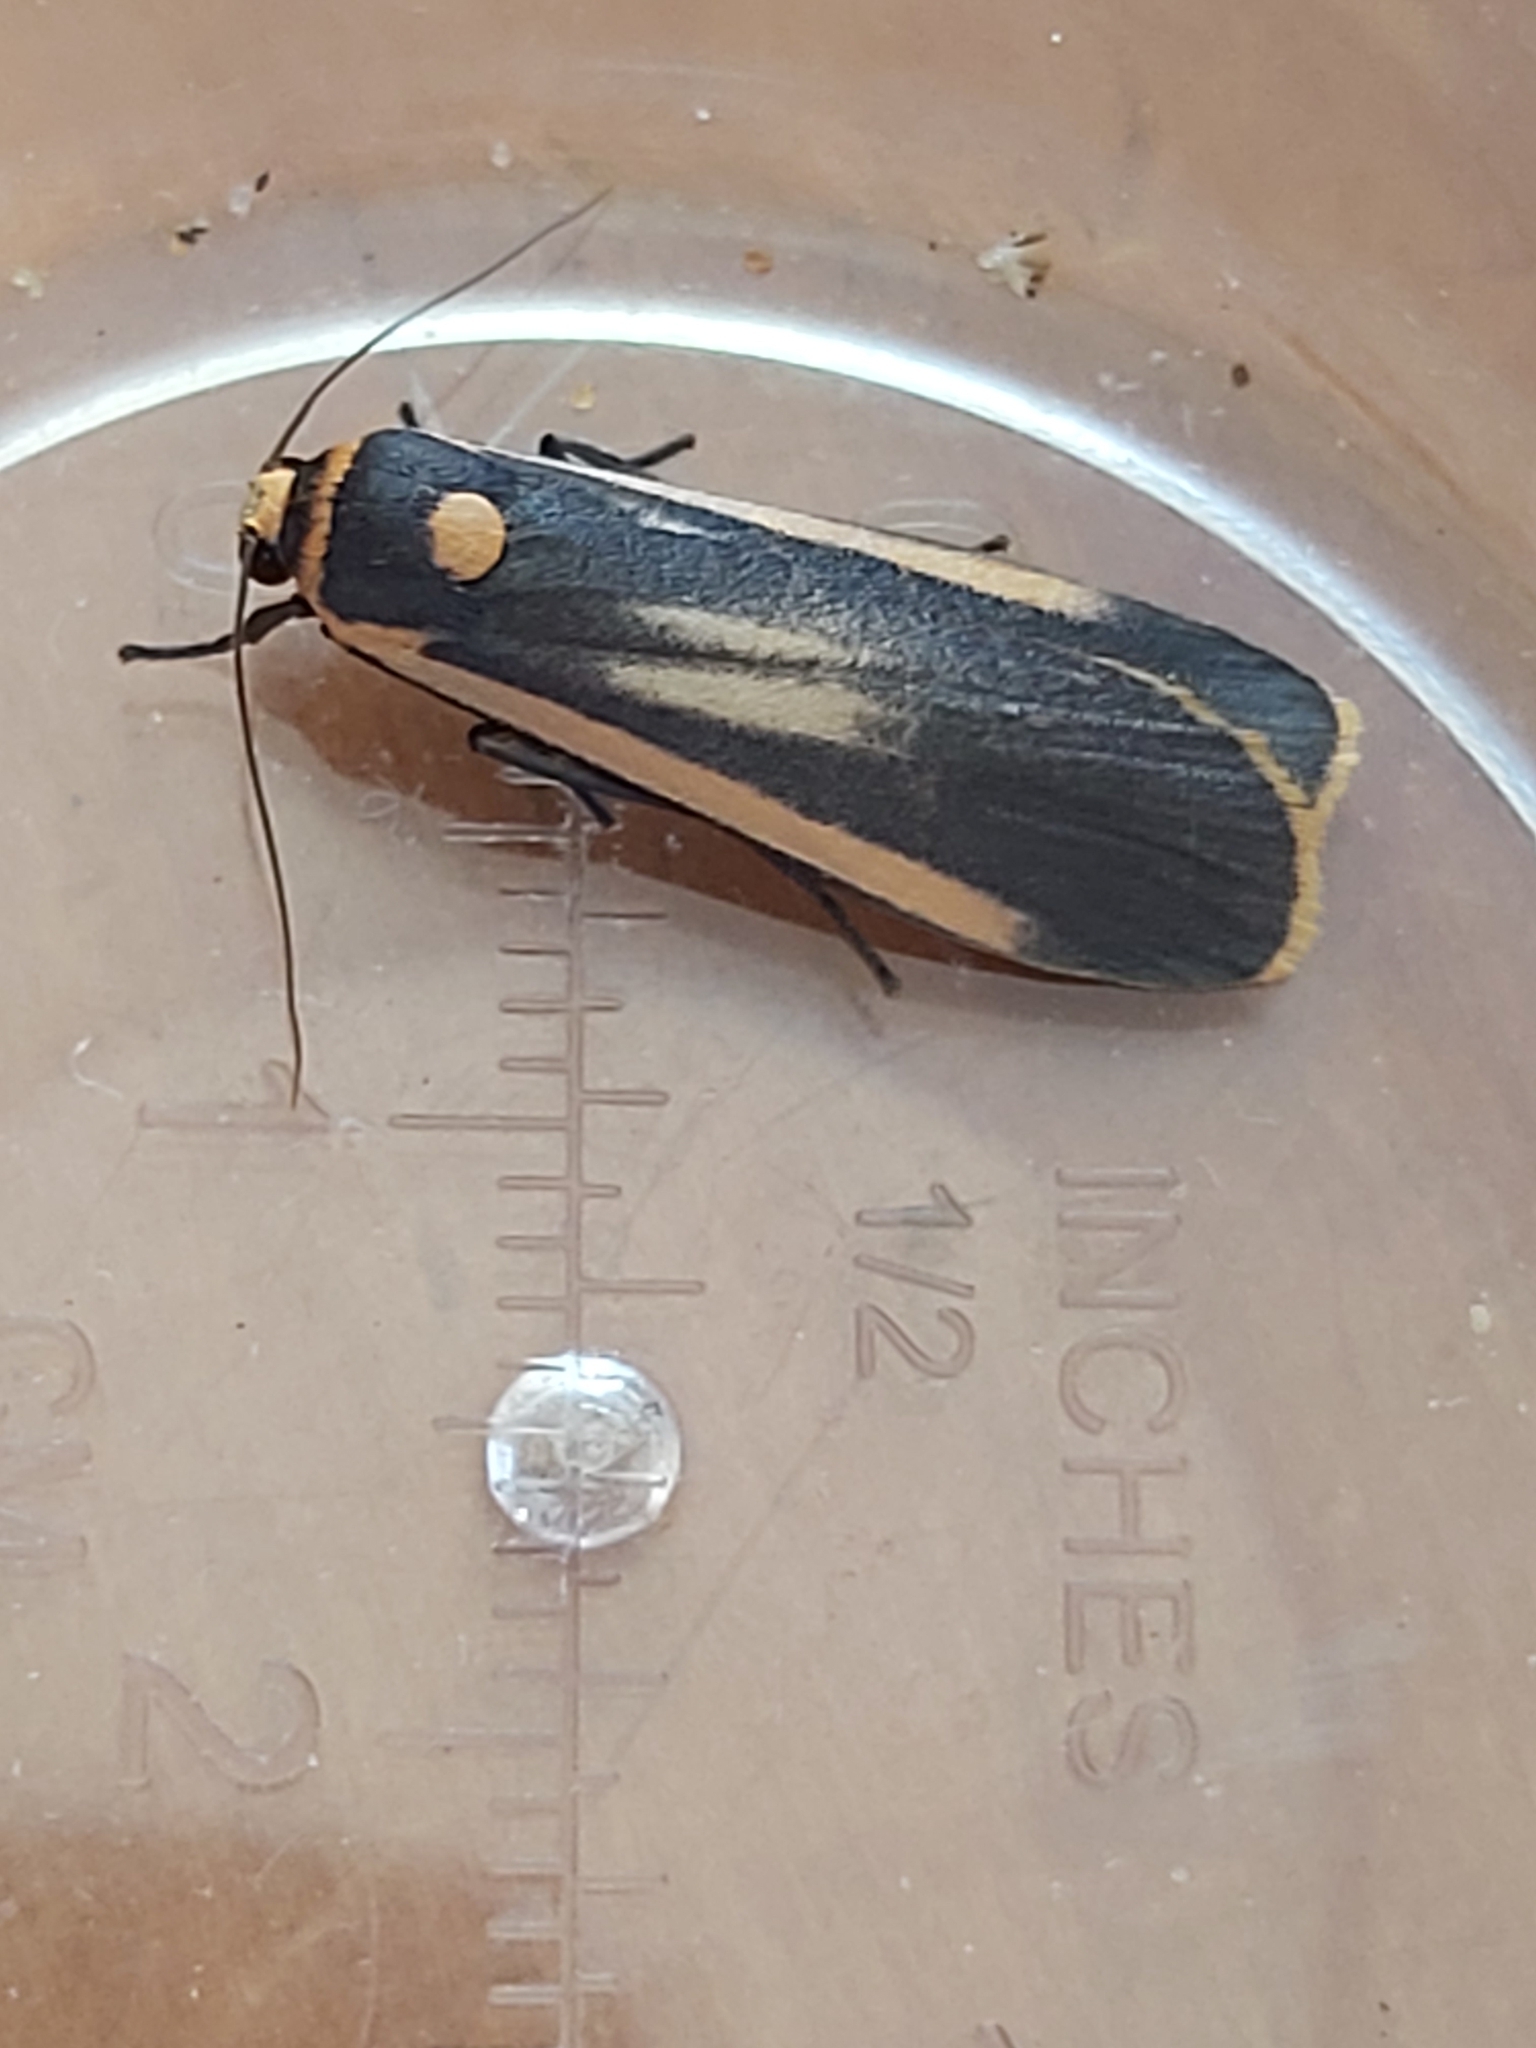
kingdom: Animalia
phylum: Arthropoda
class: Insecta
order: Lepidoptera
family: Erebidae
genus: Brunia
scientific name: Brunia replana
